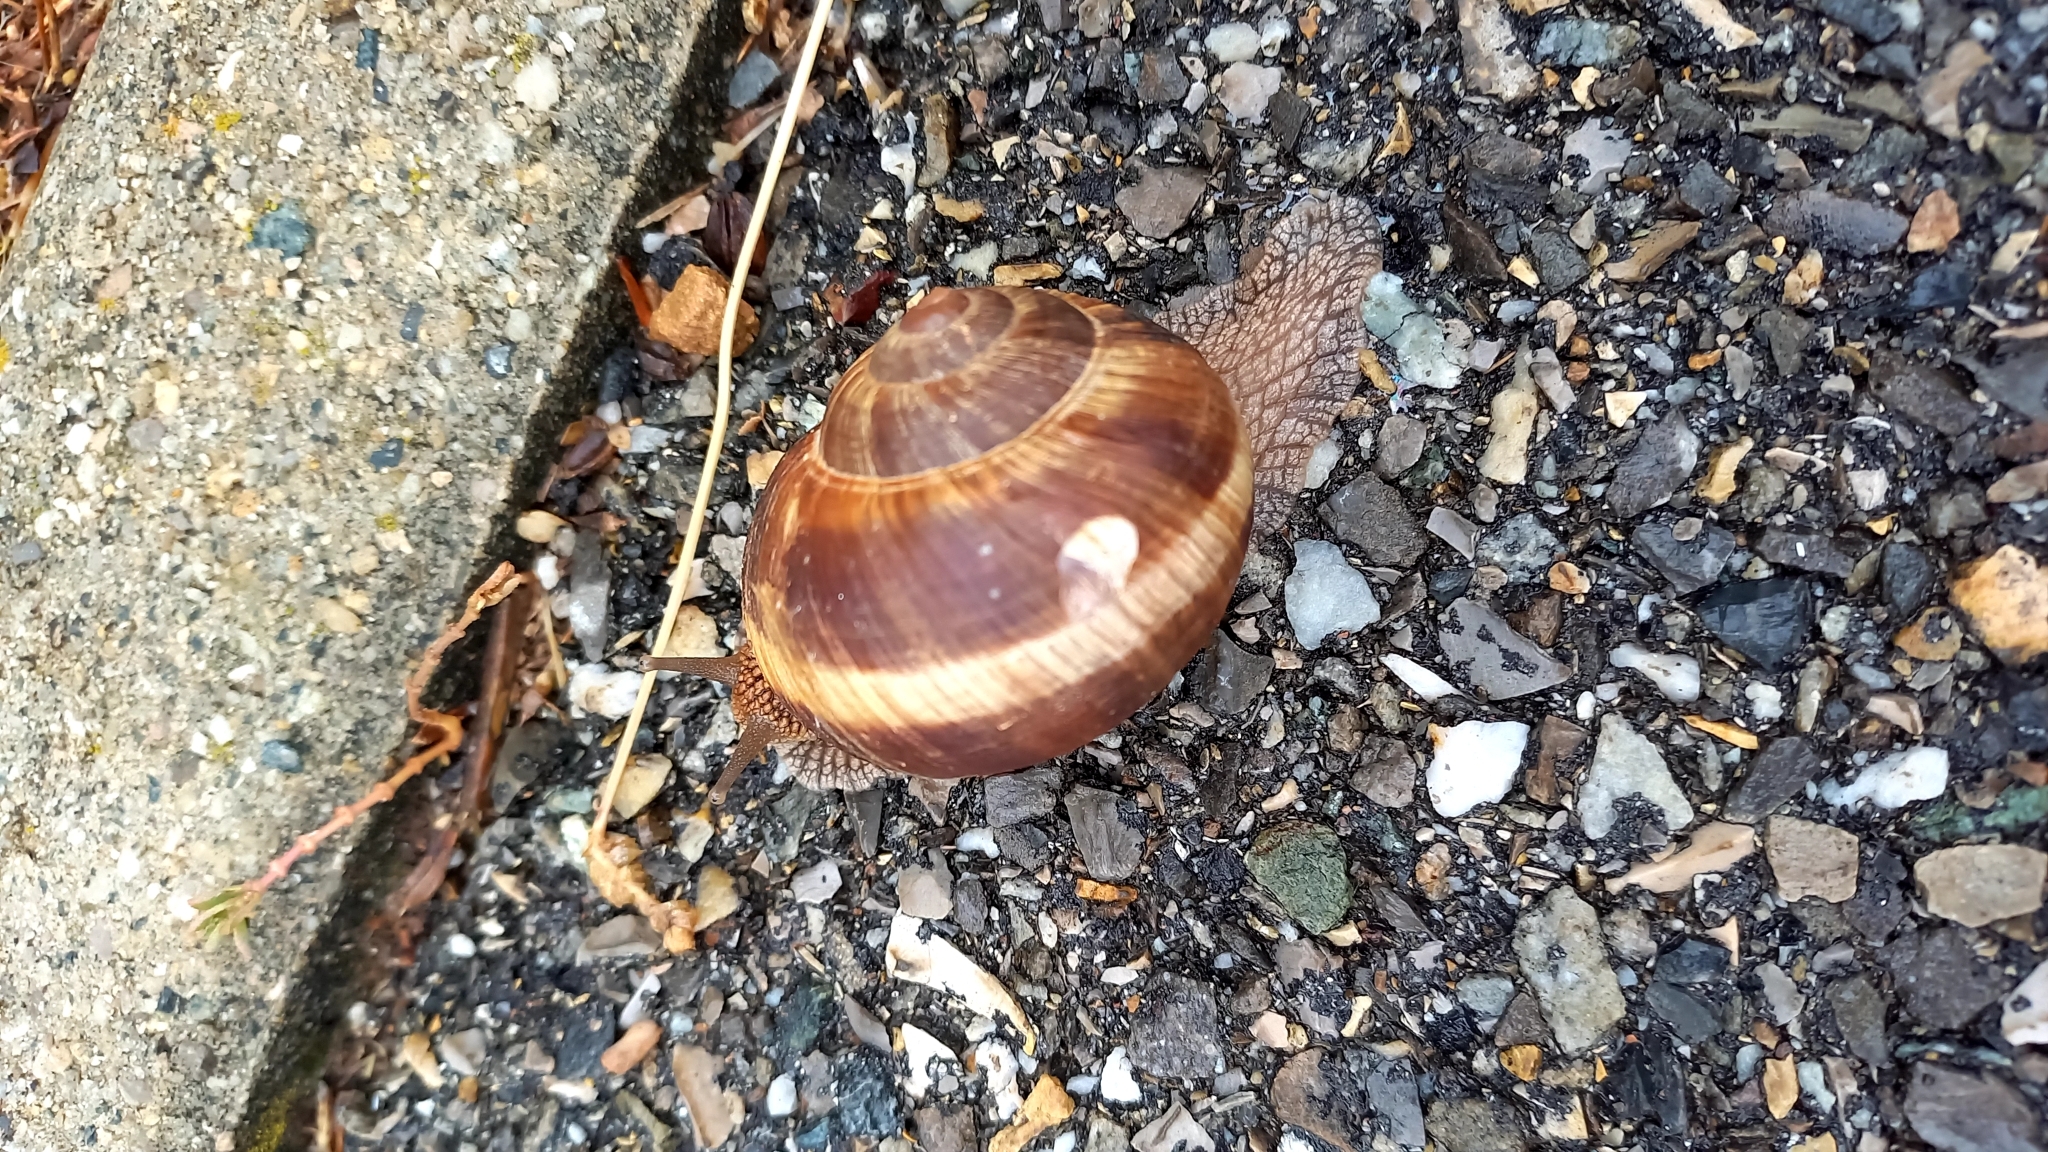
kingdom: Animalia
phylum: Mollusca
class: Gastropoda
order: Stylommatophora
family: Helicidae
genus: Helix
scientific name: Helix lucorum
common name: Turkish snail
